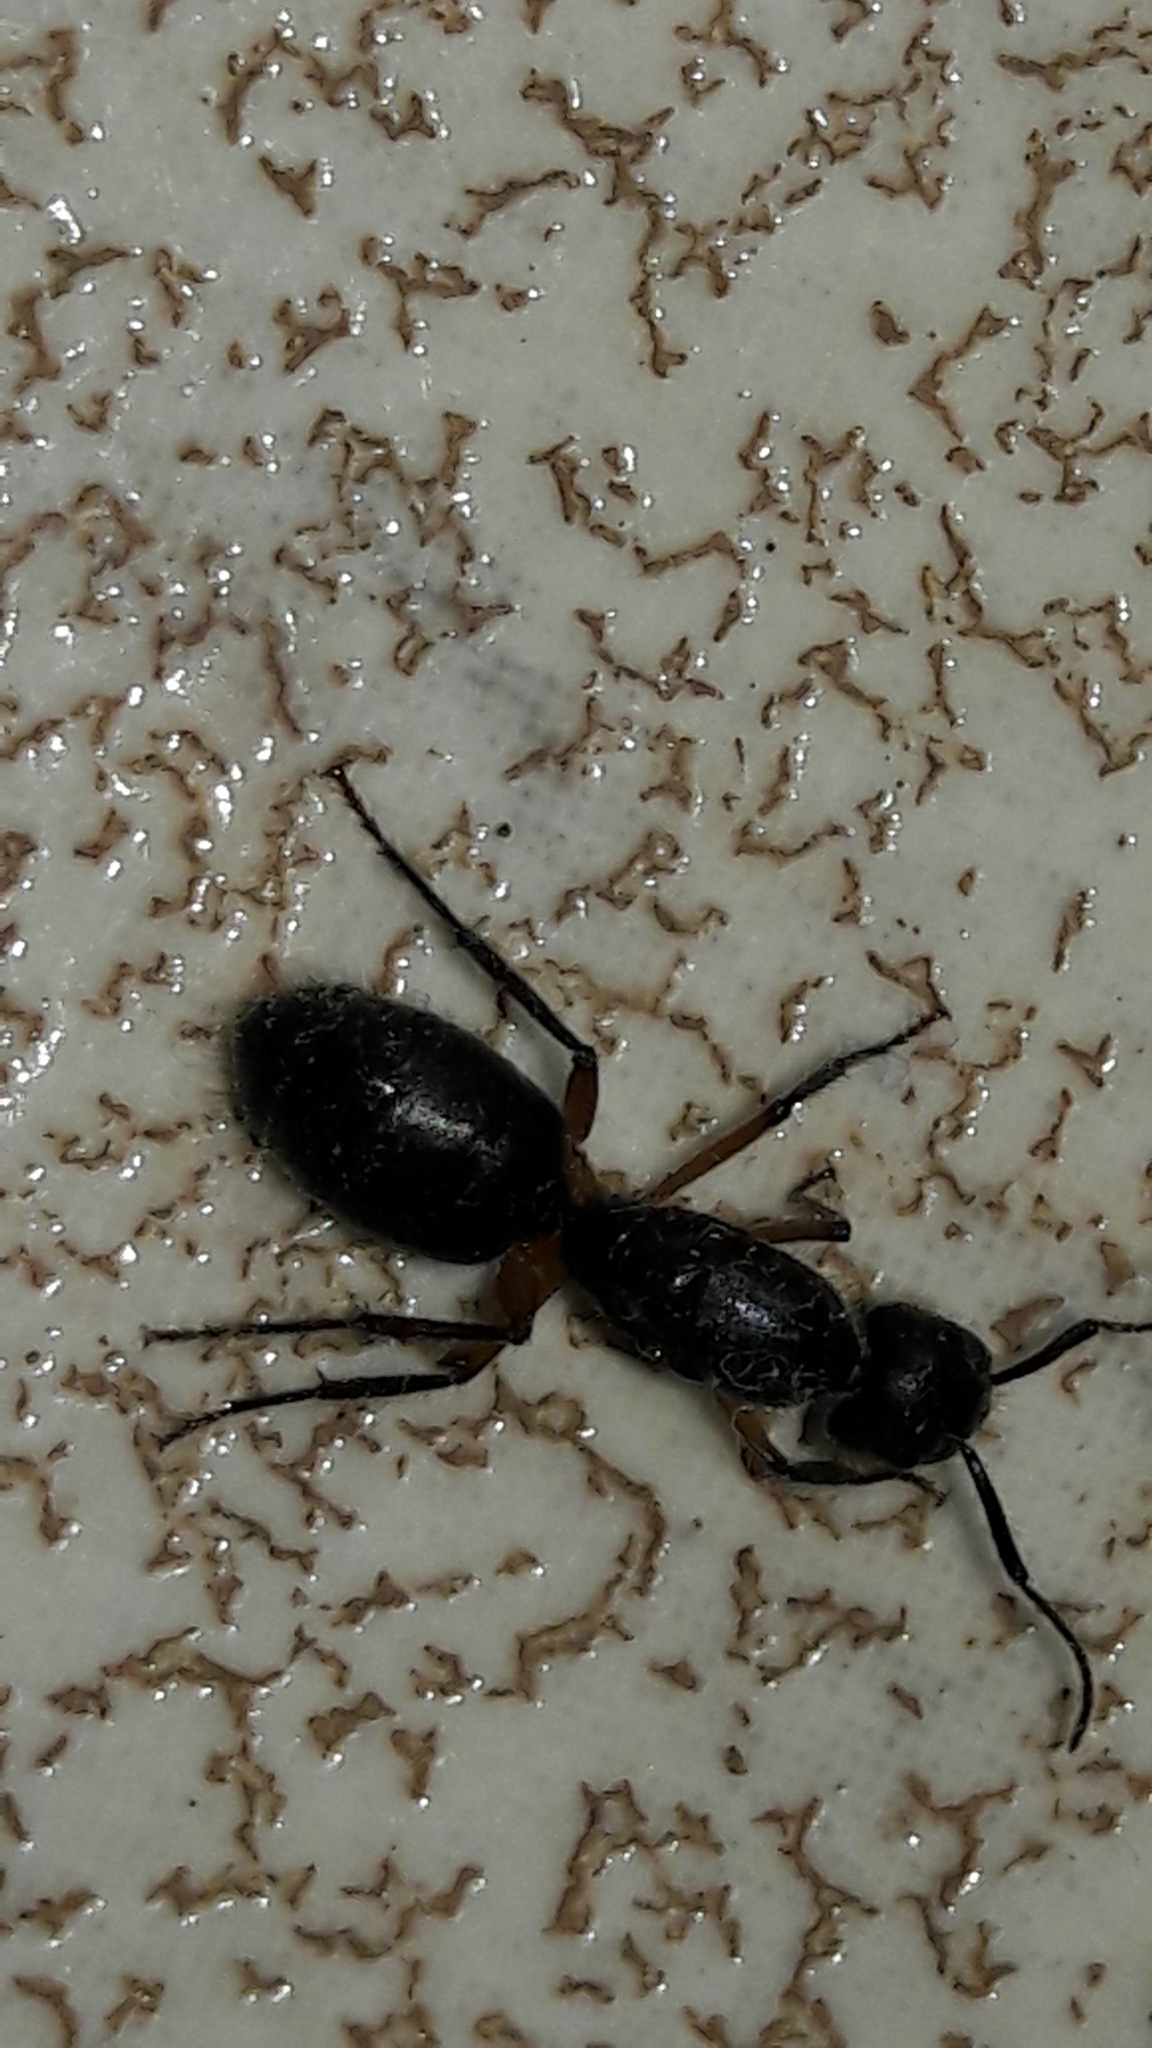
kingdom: Animalia
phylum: Arthropoda
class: Insecta
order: Hymenoptera
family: Formicidae
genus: Camponotus
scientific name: Camponotus renggeri
